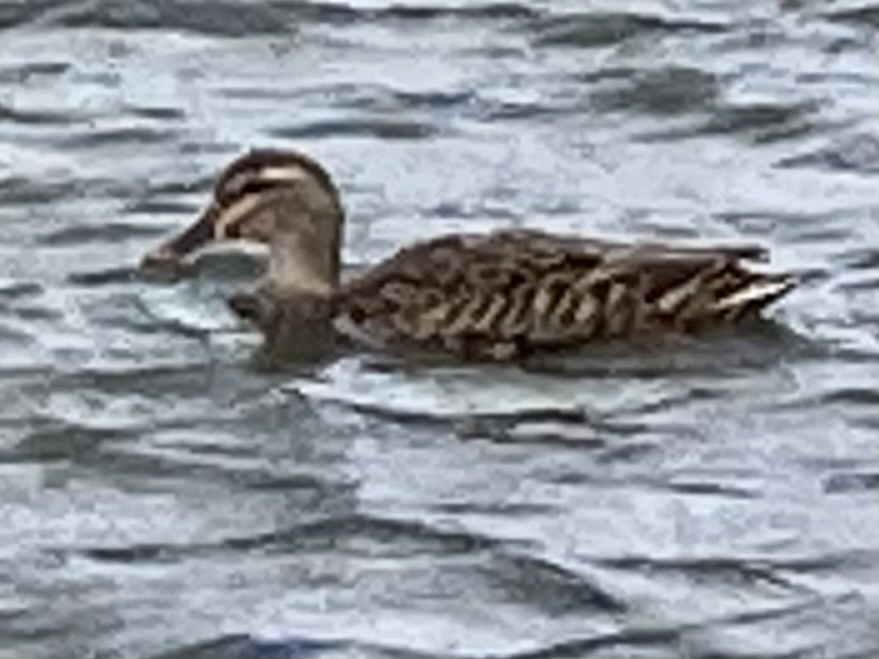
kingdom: Animalia
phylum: Chordata
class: Aves
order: Anseriformes
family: Anatidae
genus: Anas
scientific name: Anas
